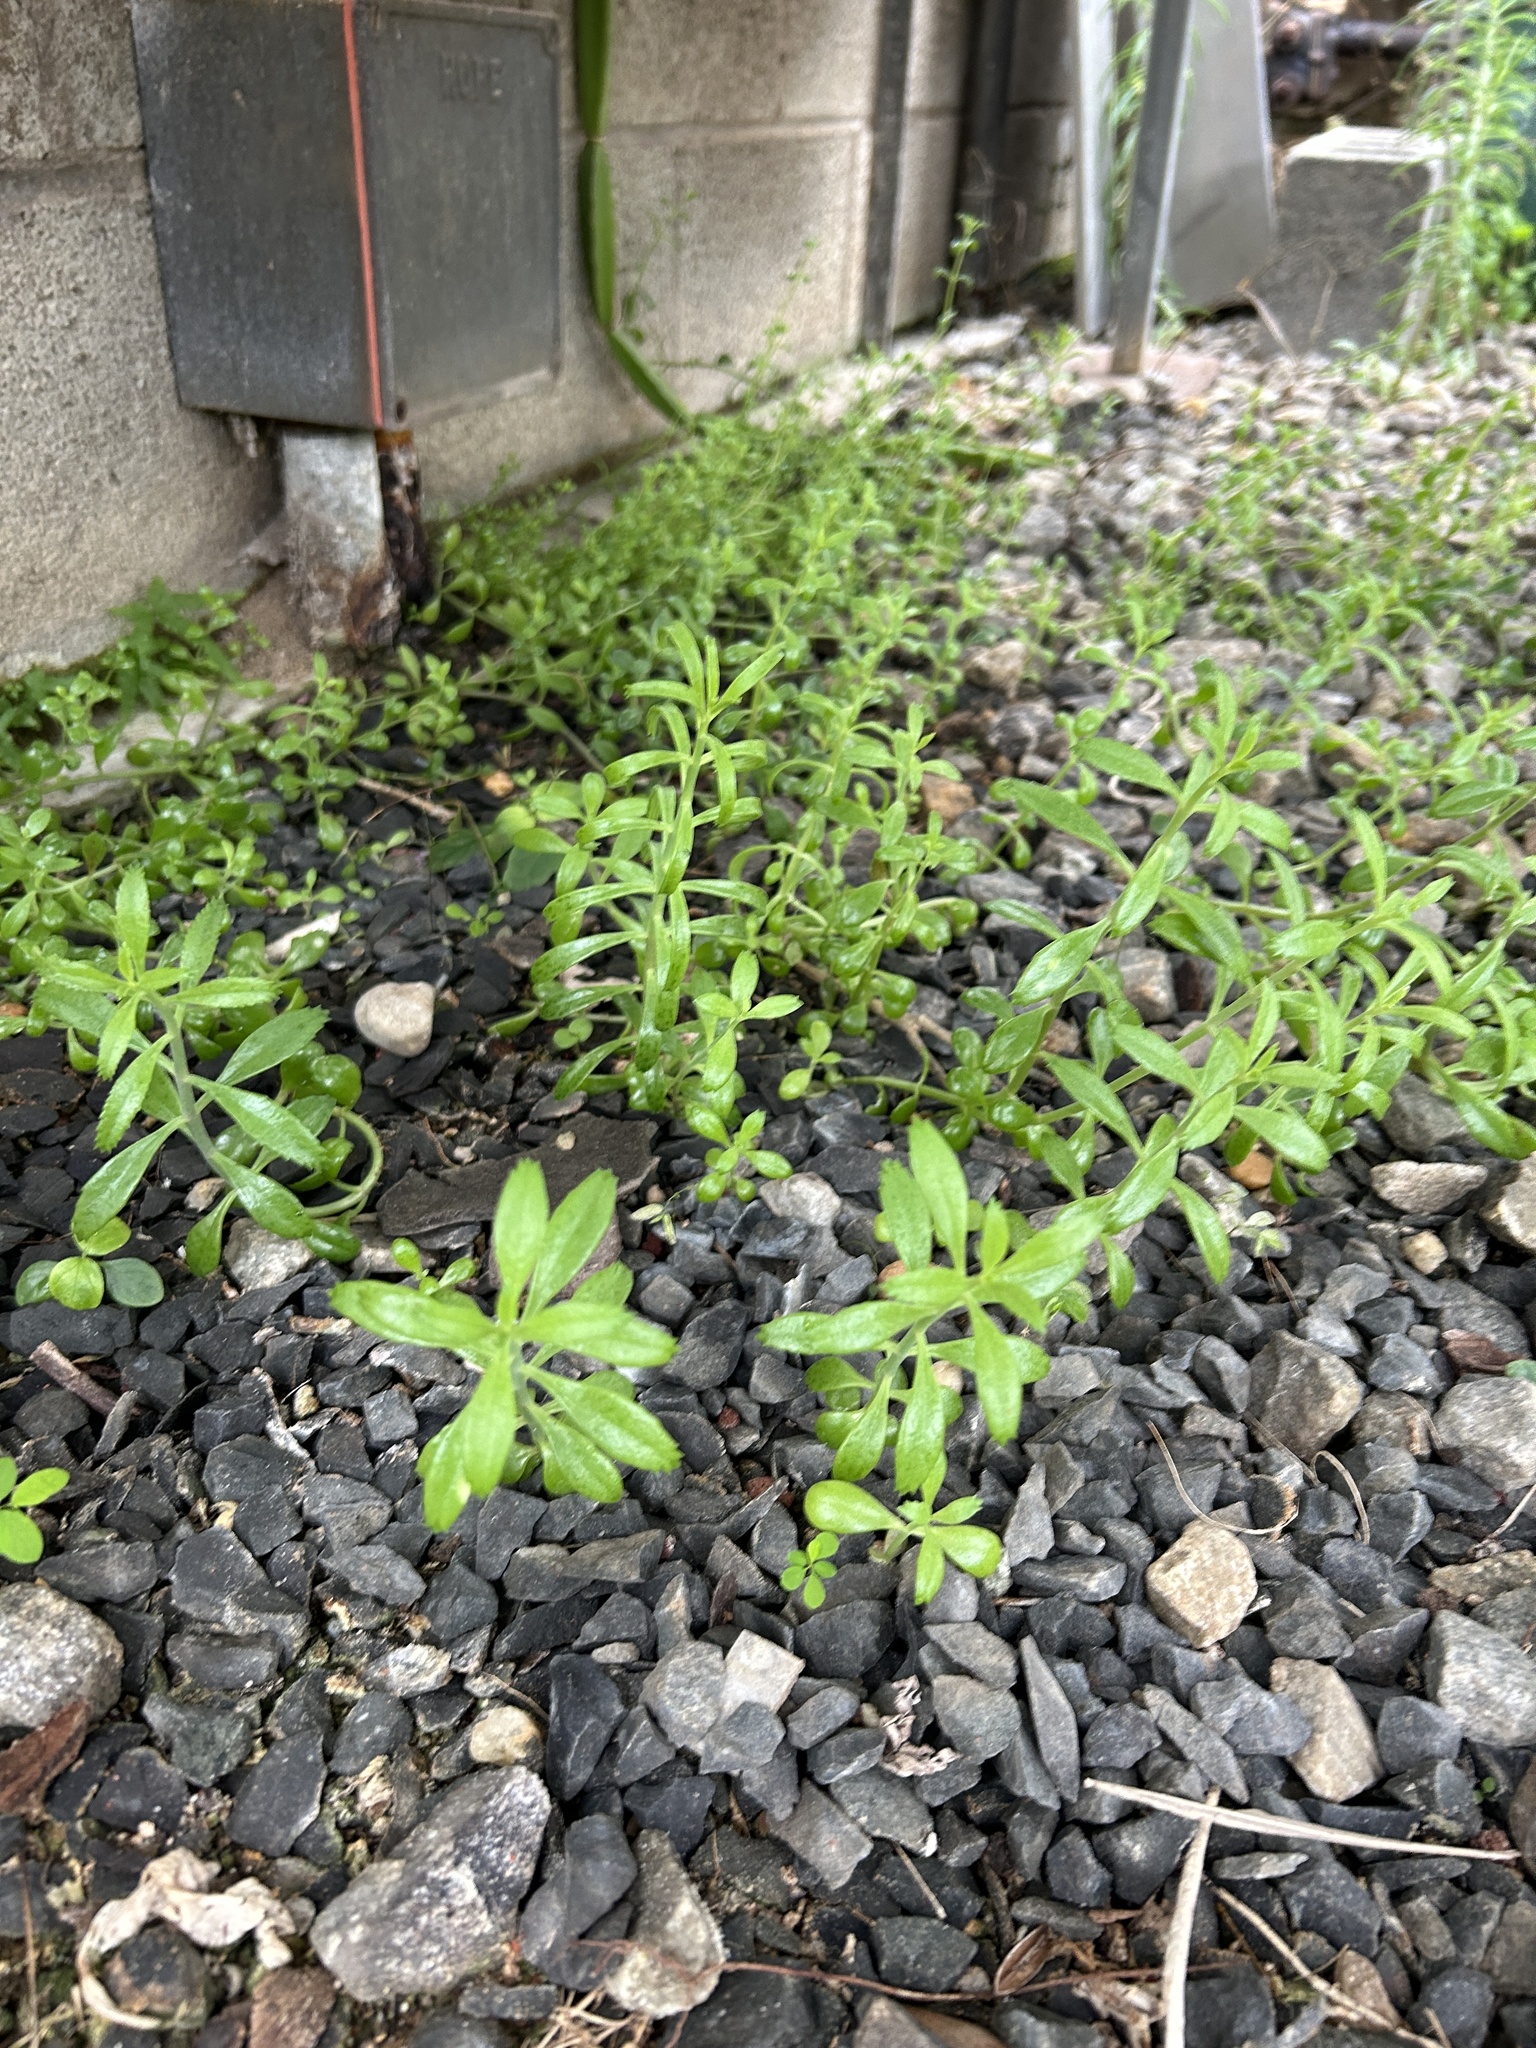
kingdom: Plantae
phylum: Tracheophyta
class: Magnoliopsida
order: Saxifragales
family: Crassulaceae
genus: Kalanchoe
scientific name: Kalanchoe houghtonii
